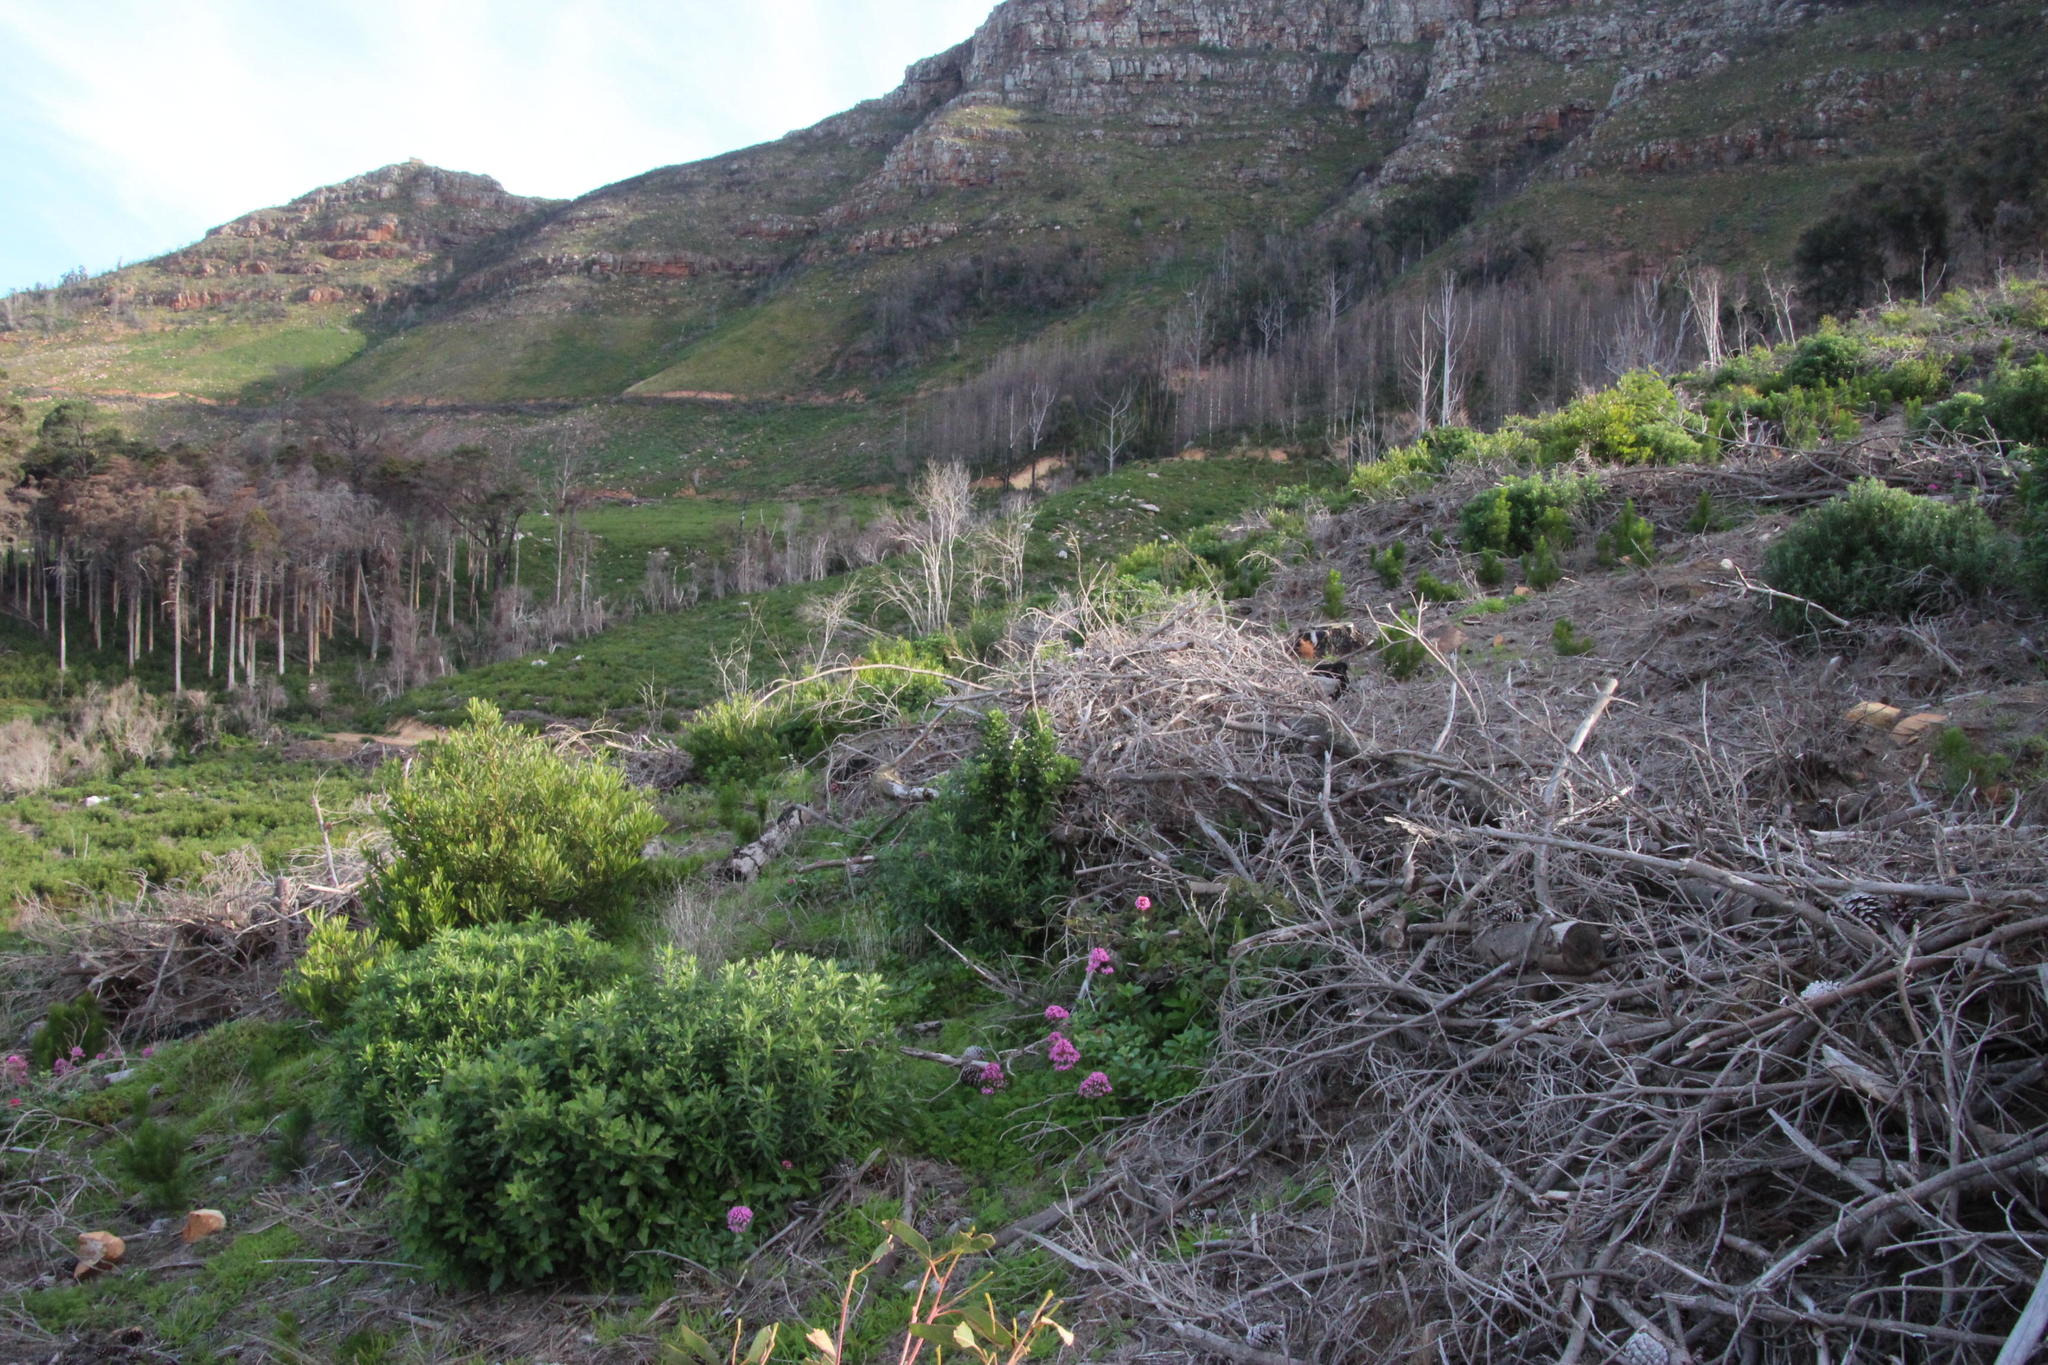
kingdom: Plantae
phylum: Tracheophyta
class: Magnoliopsida
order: Dipsacales
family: Caprifoliaceae
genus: Centranthus
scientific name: Centranthus ruber
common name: Red valerian
